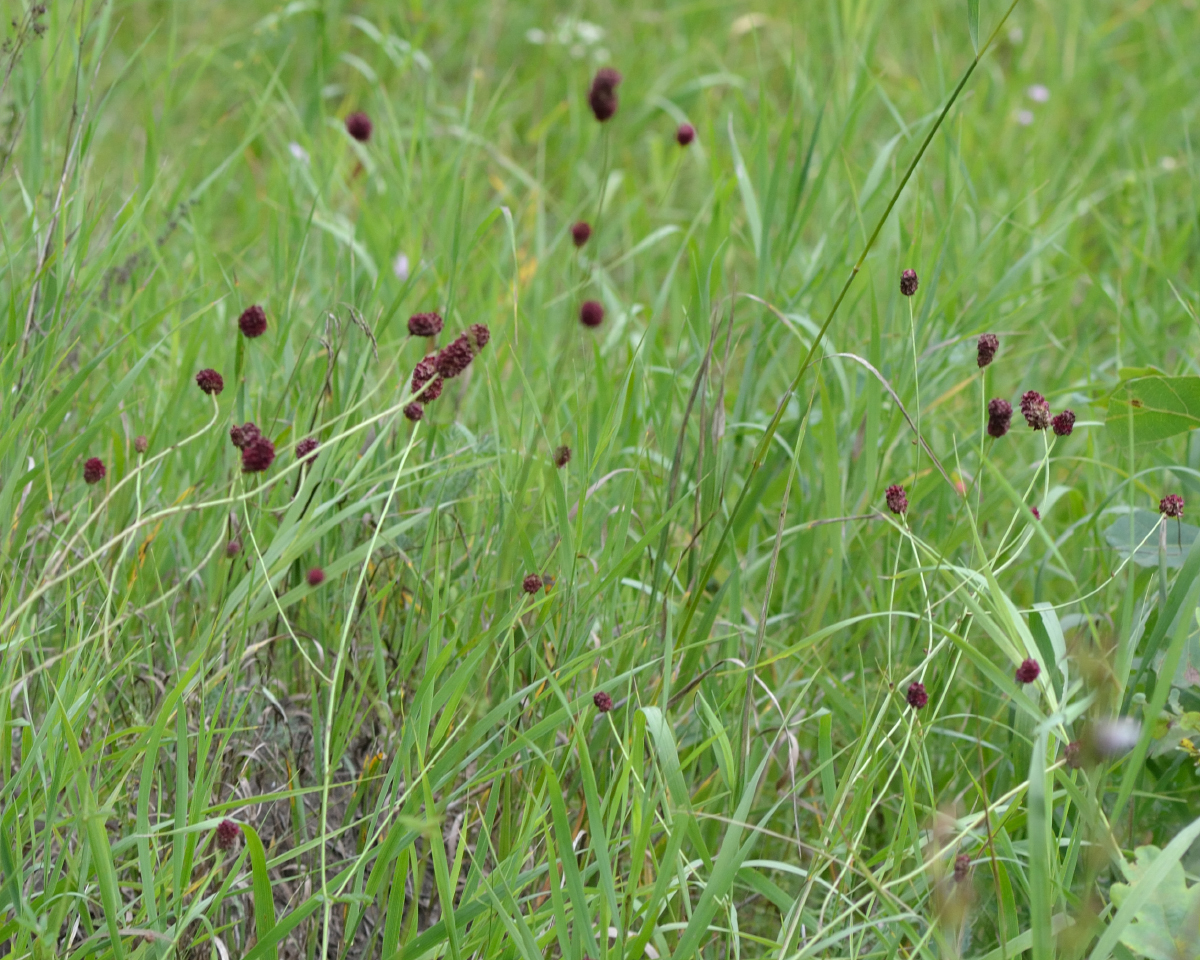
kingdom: Plantae
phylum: Tracheophyta
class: Magnoliopsida
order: Rosales
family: Rosaceae
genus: Sanguisorba
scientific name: Sanguisorba officinalis
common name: Great burnet
